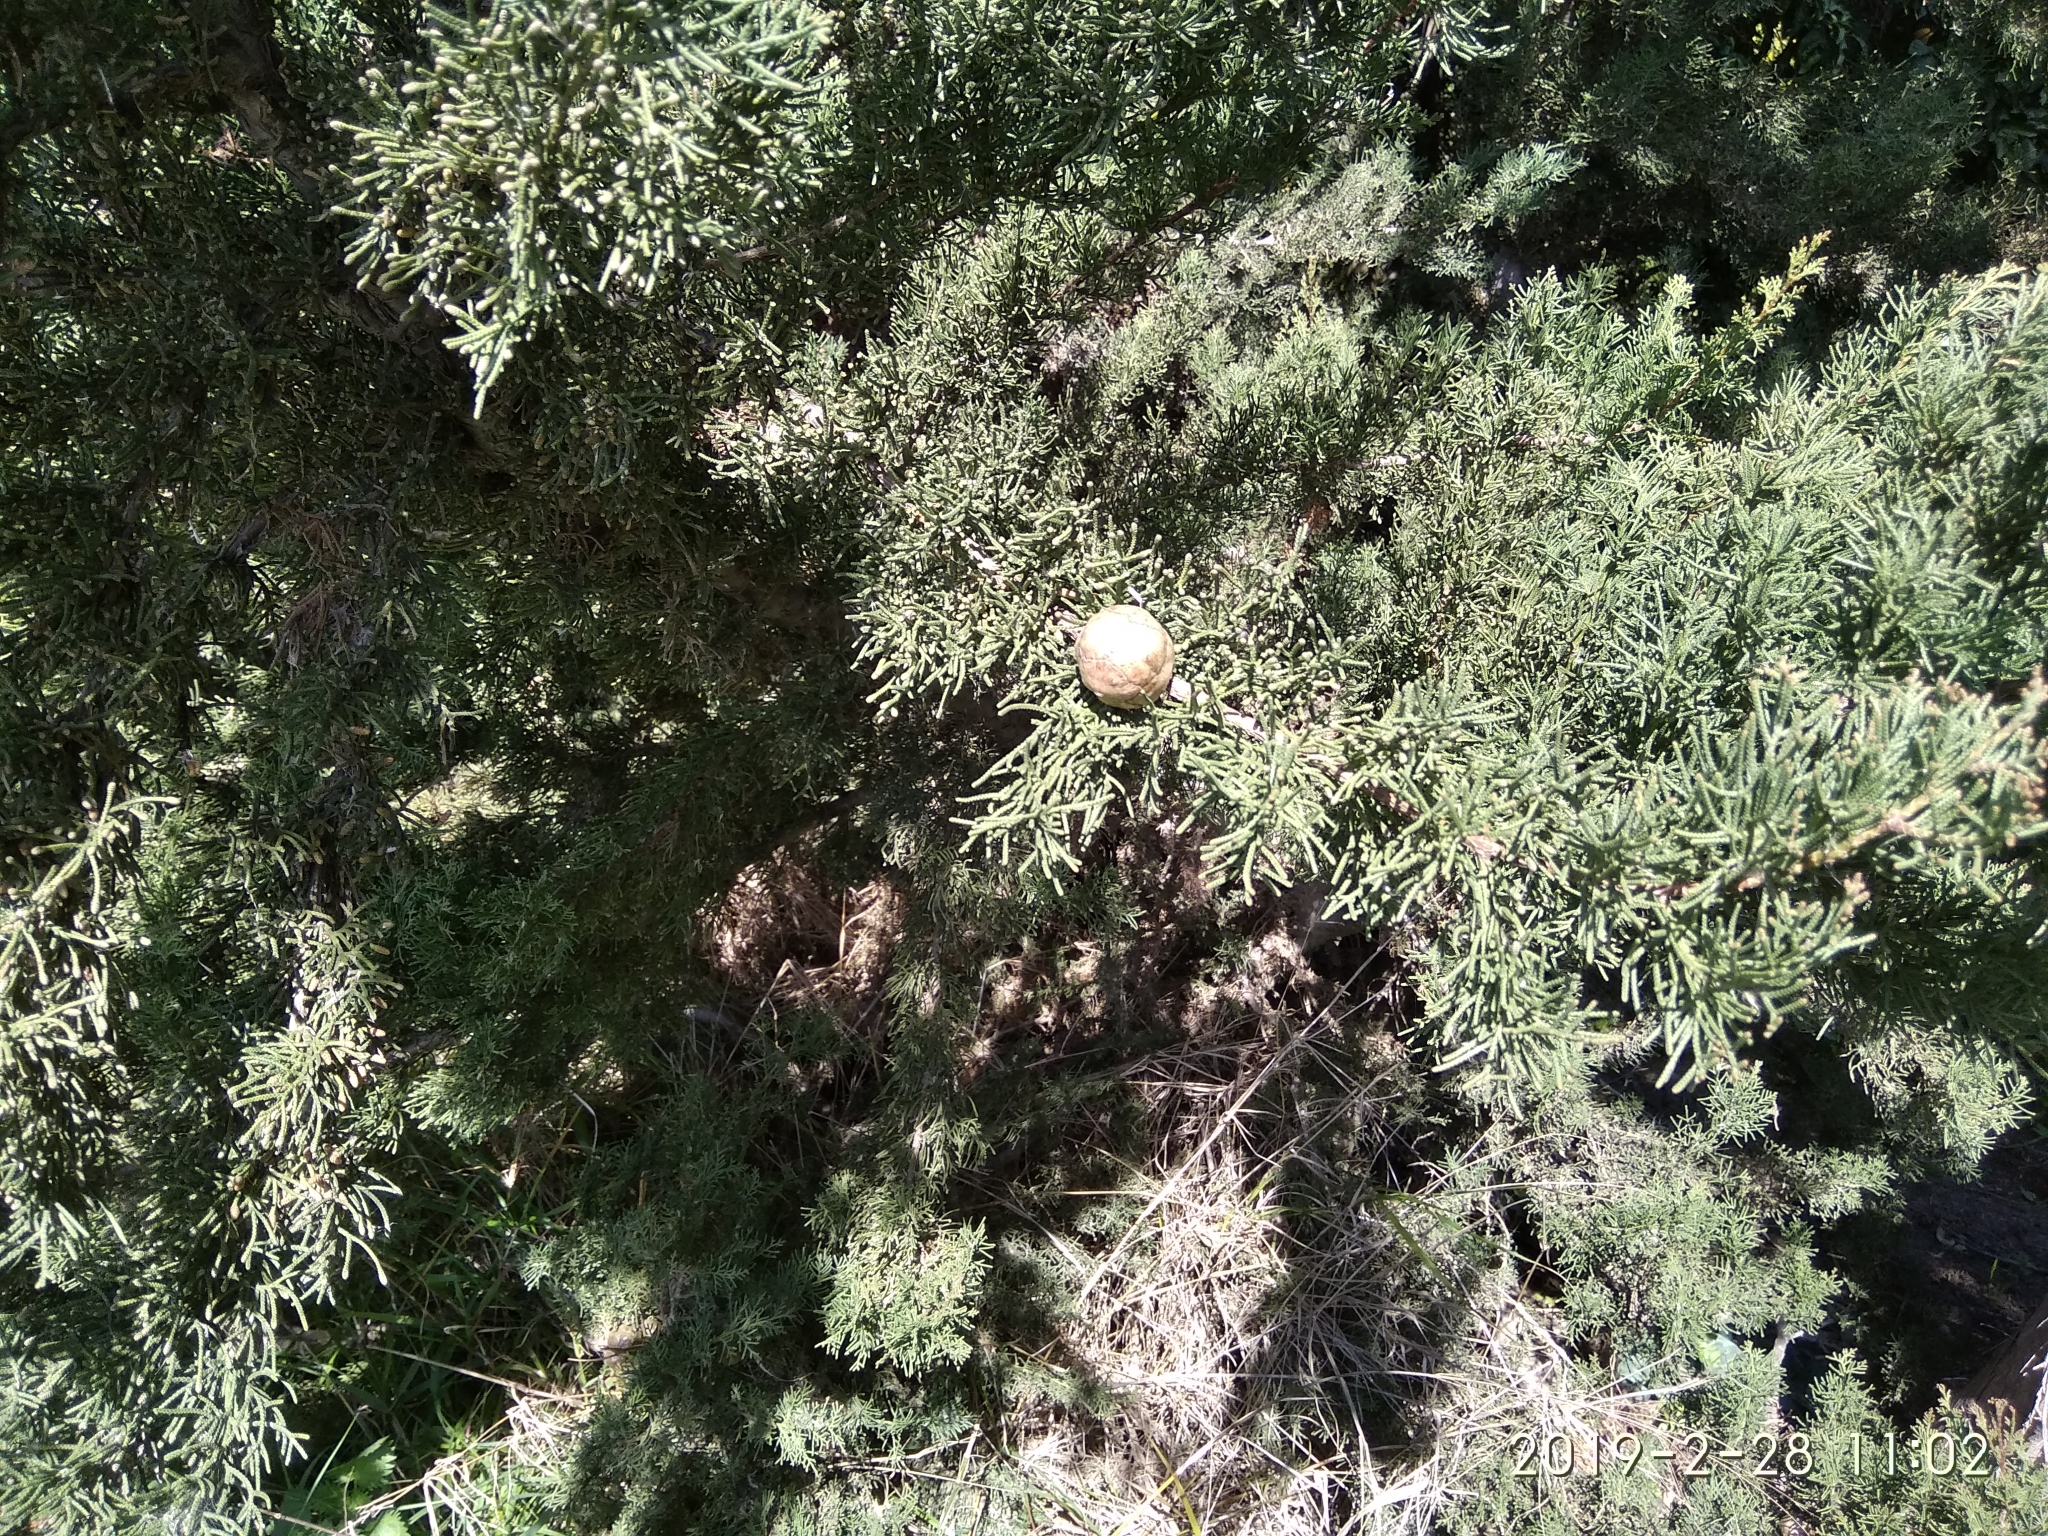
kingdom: Plantae
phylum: Tracheophyta
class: Pinopsida
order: Pinales
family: Cupressaceae
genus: Cupressus
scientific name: Cupressus sempervirens
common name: Italian cypress
